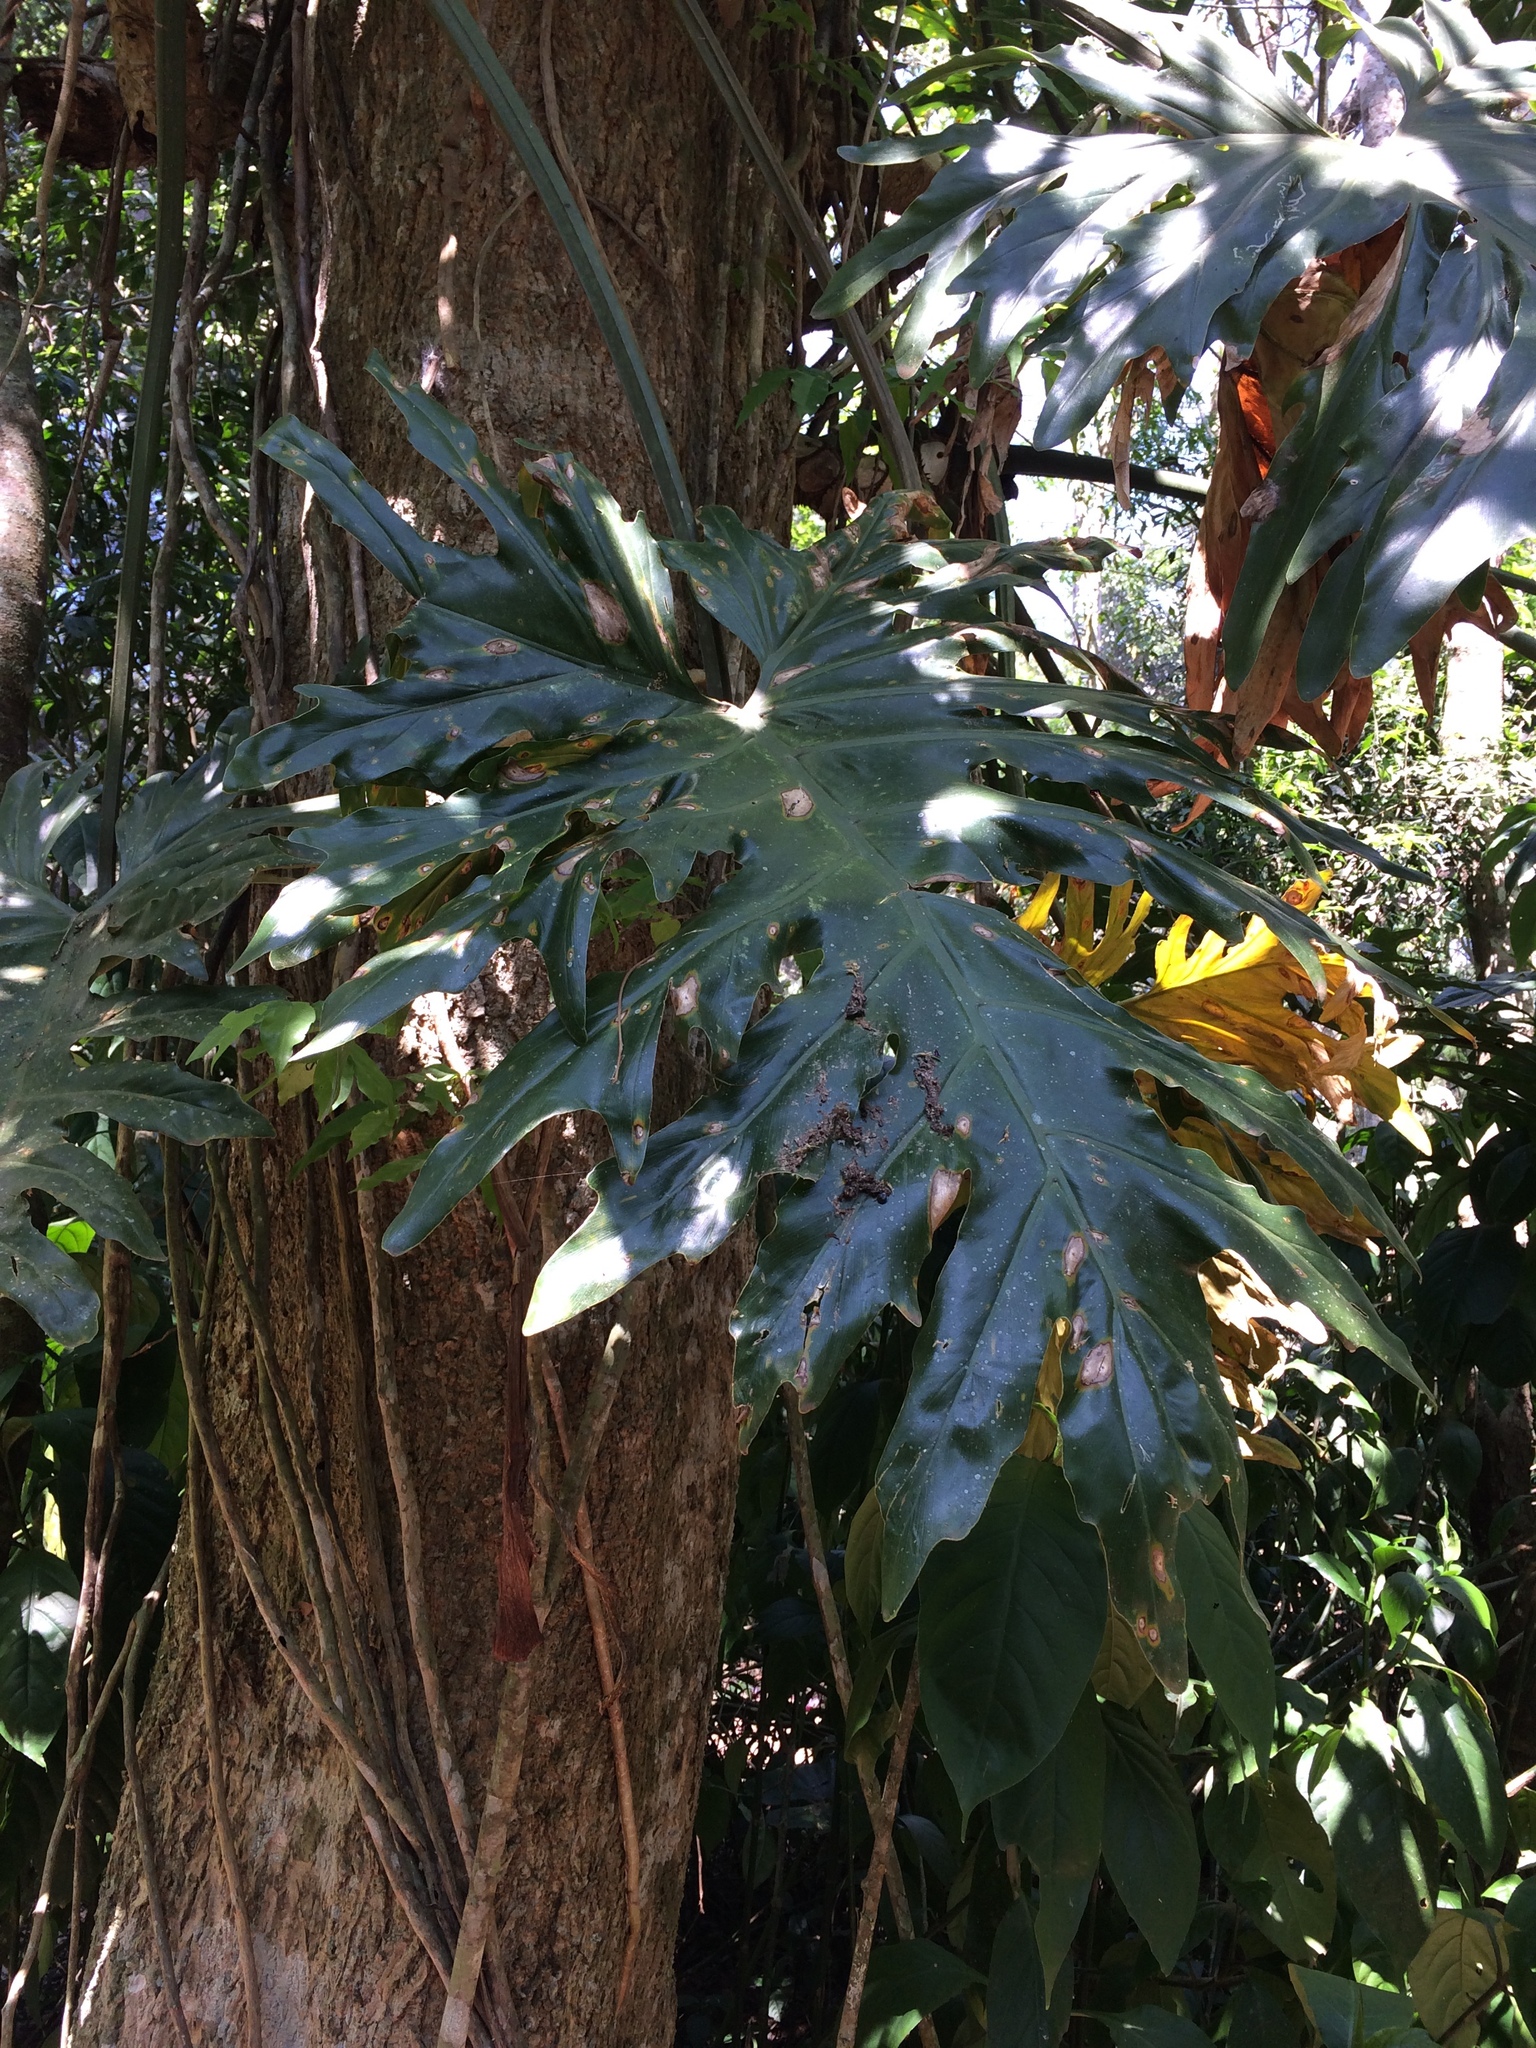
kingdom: Plantae
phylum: Tracheophyta
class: Liliopsida
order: Alismatales
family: Araceae
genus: Thaumatophyllum
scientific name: Thaumatophyllum bipinnatifidum
